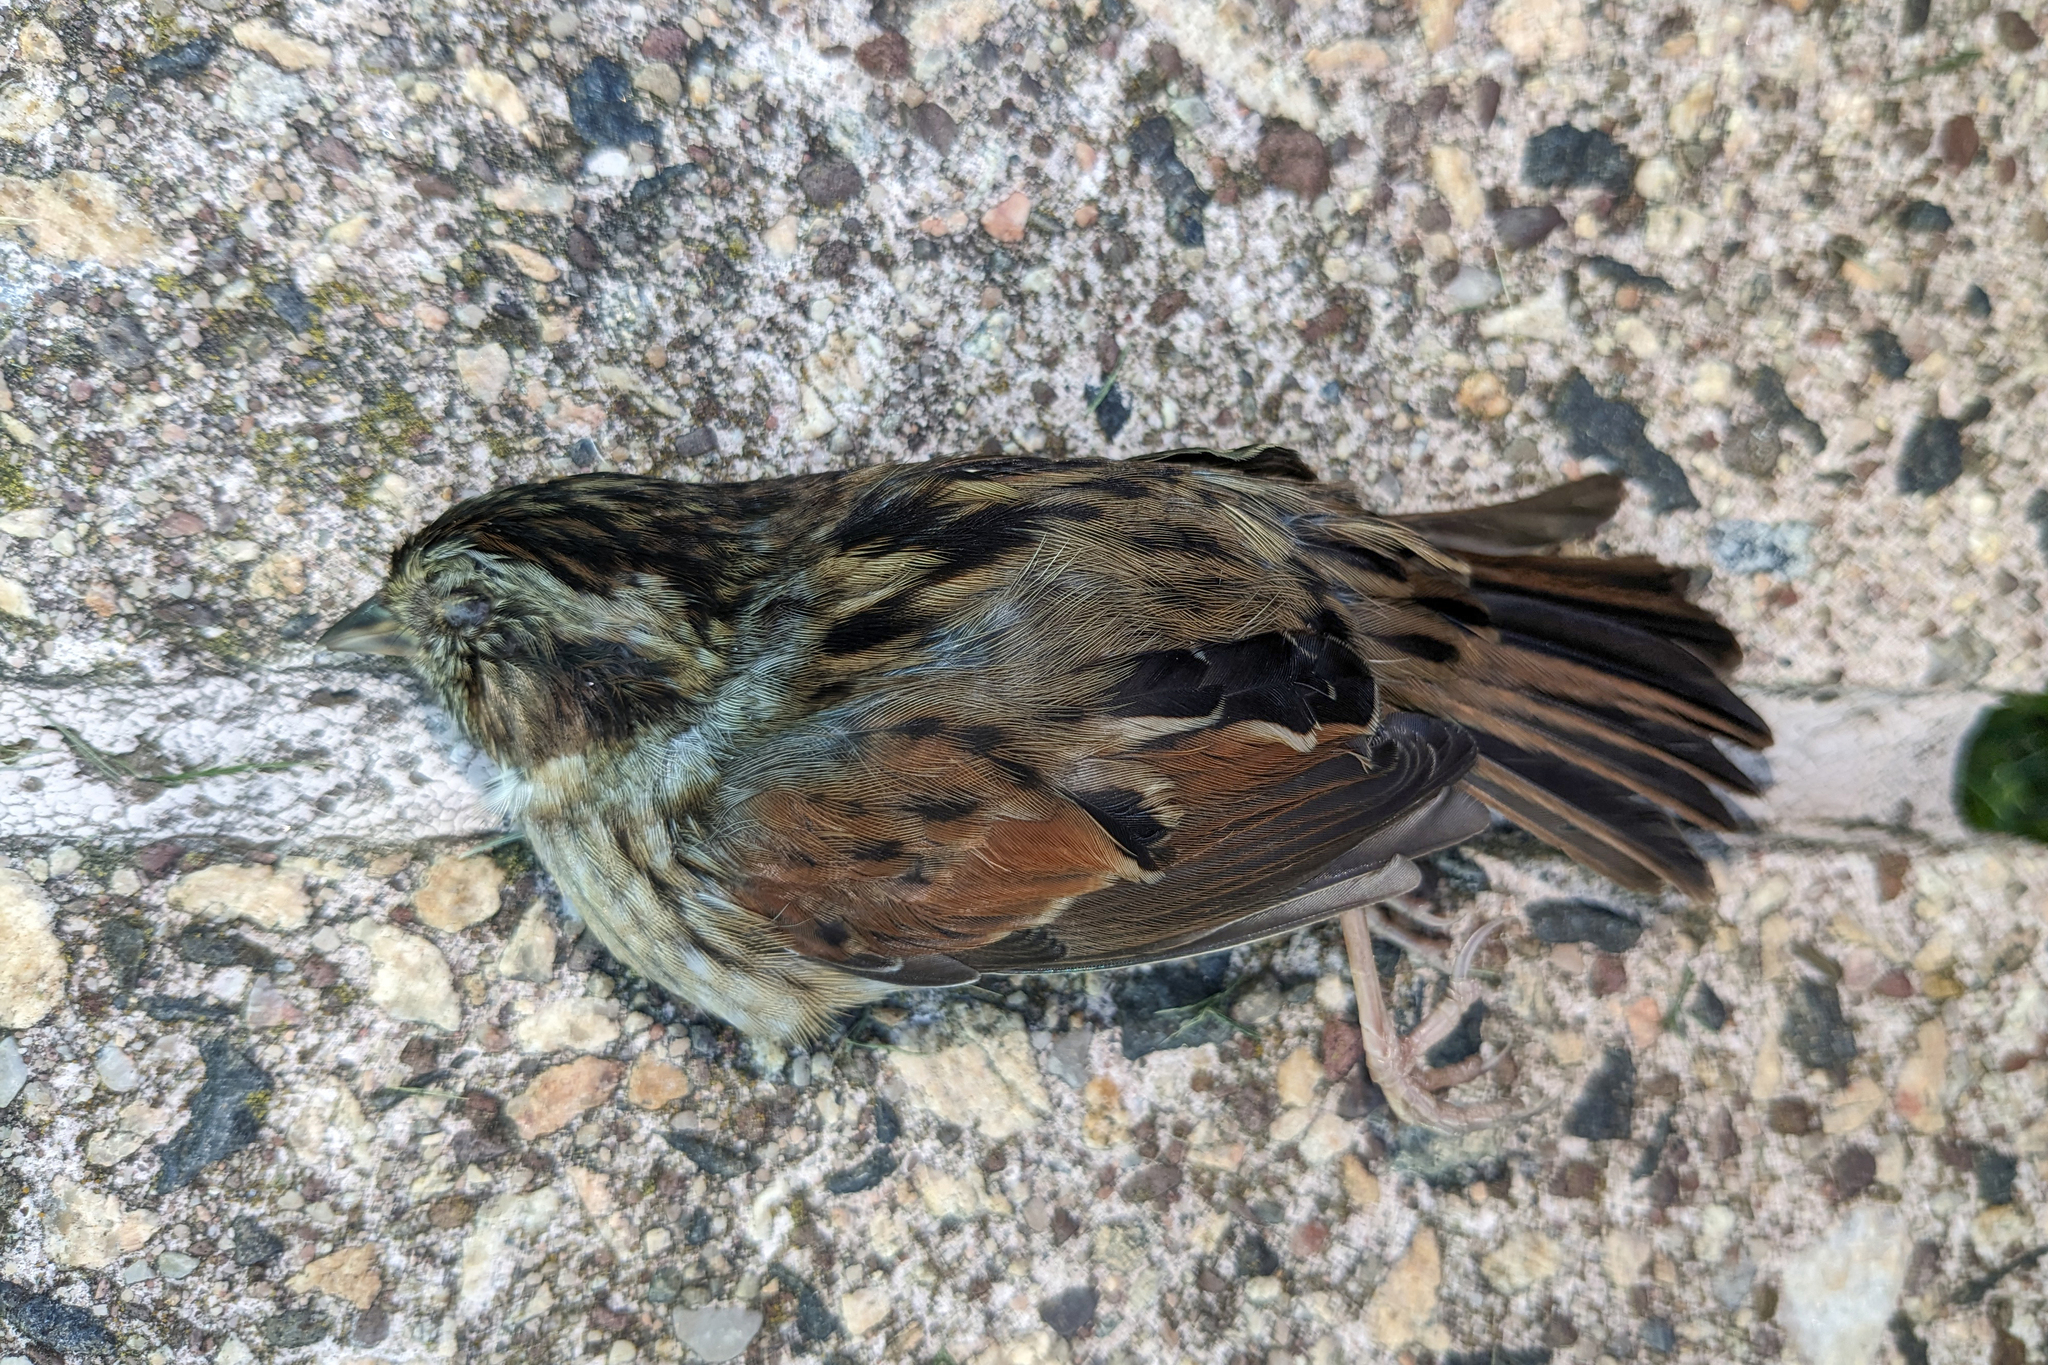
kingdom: Animalia
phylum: Chordata
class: Aves
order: Passeriformes
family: Passerellidae
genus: Melospiza
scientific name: Melospiza georgiana
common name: Swamp sparrow
